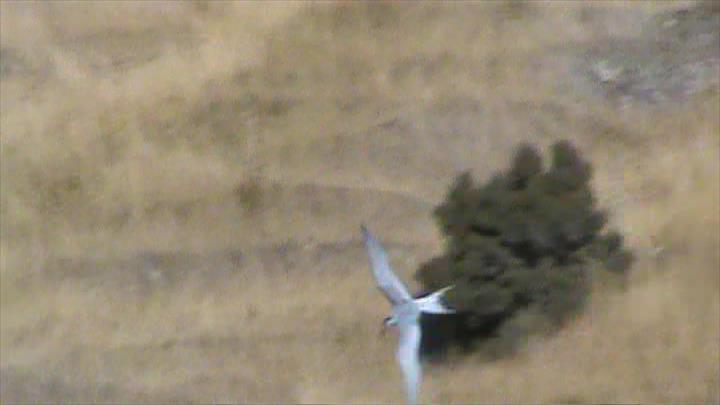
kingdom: Animalia
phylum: Chordata
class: Aves
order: Charadriiformes
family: Laridae
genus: Sterna
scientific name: Sterna striata
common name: White-fronted tern
